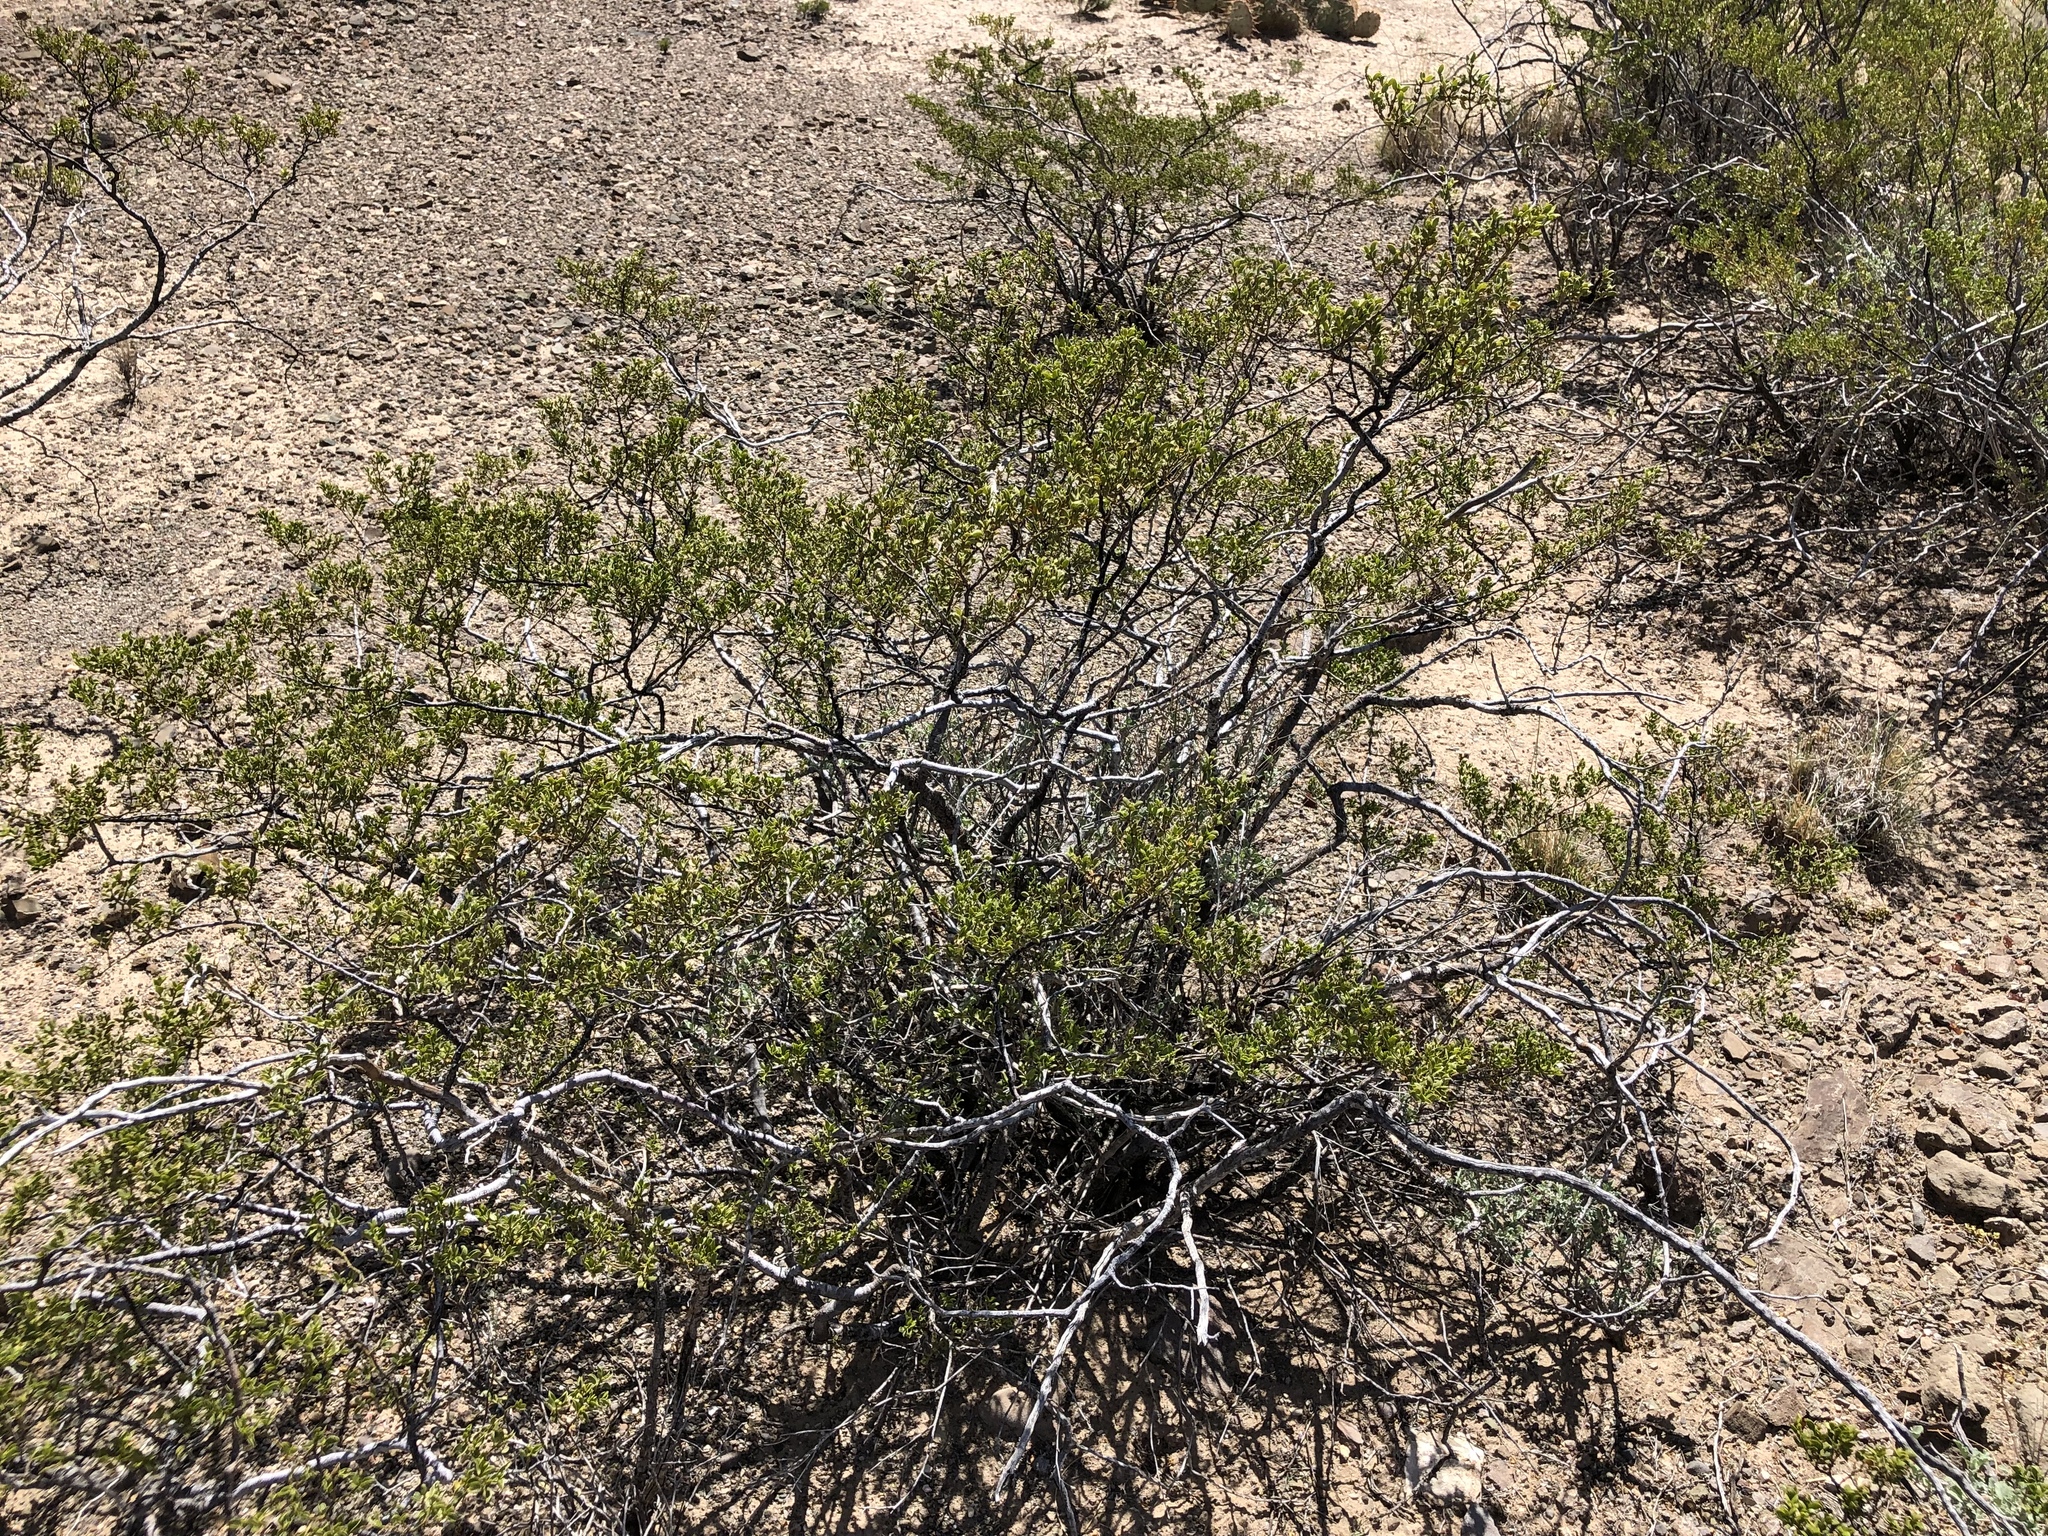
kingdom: Plantae
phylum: Tracheophyta
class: Magnoliopsida
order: Zygophyllales
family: Zygophyllaceae
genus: Larrea
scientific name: Larrea tridentata
